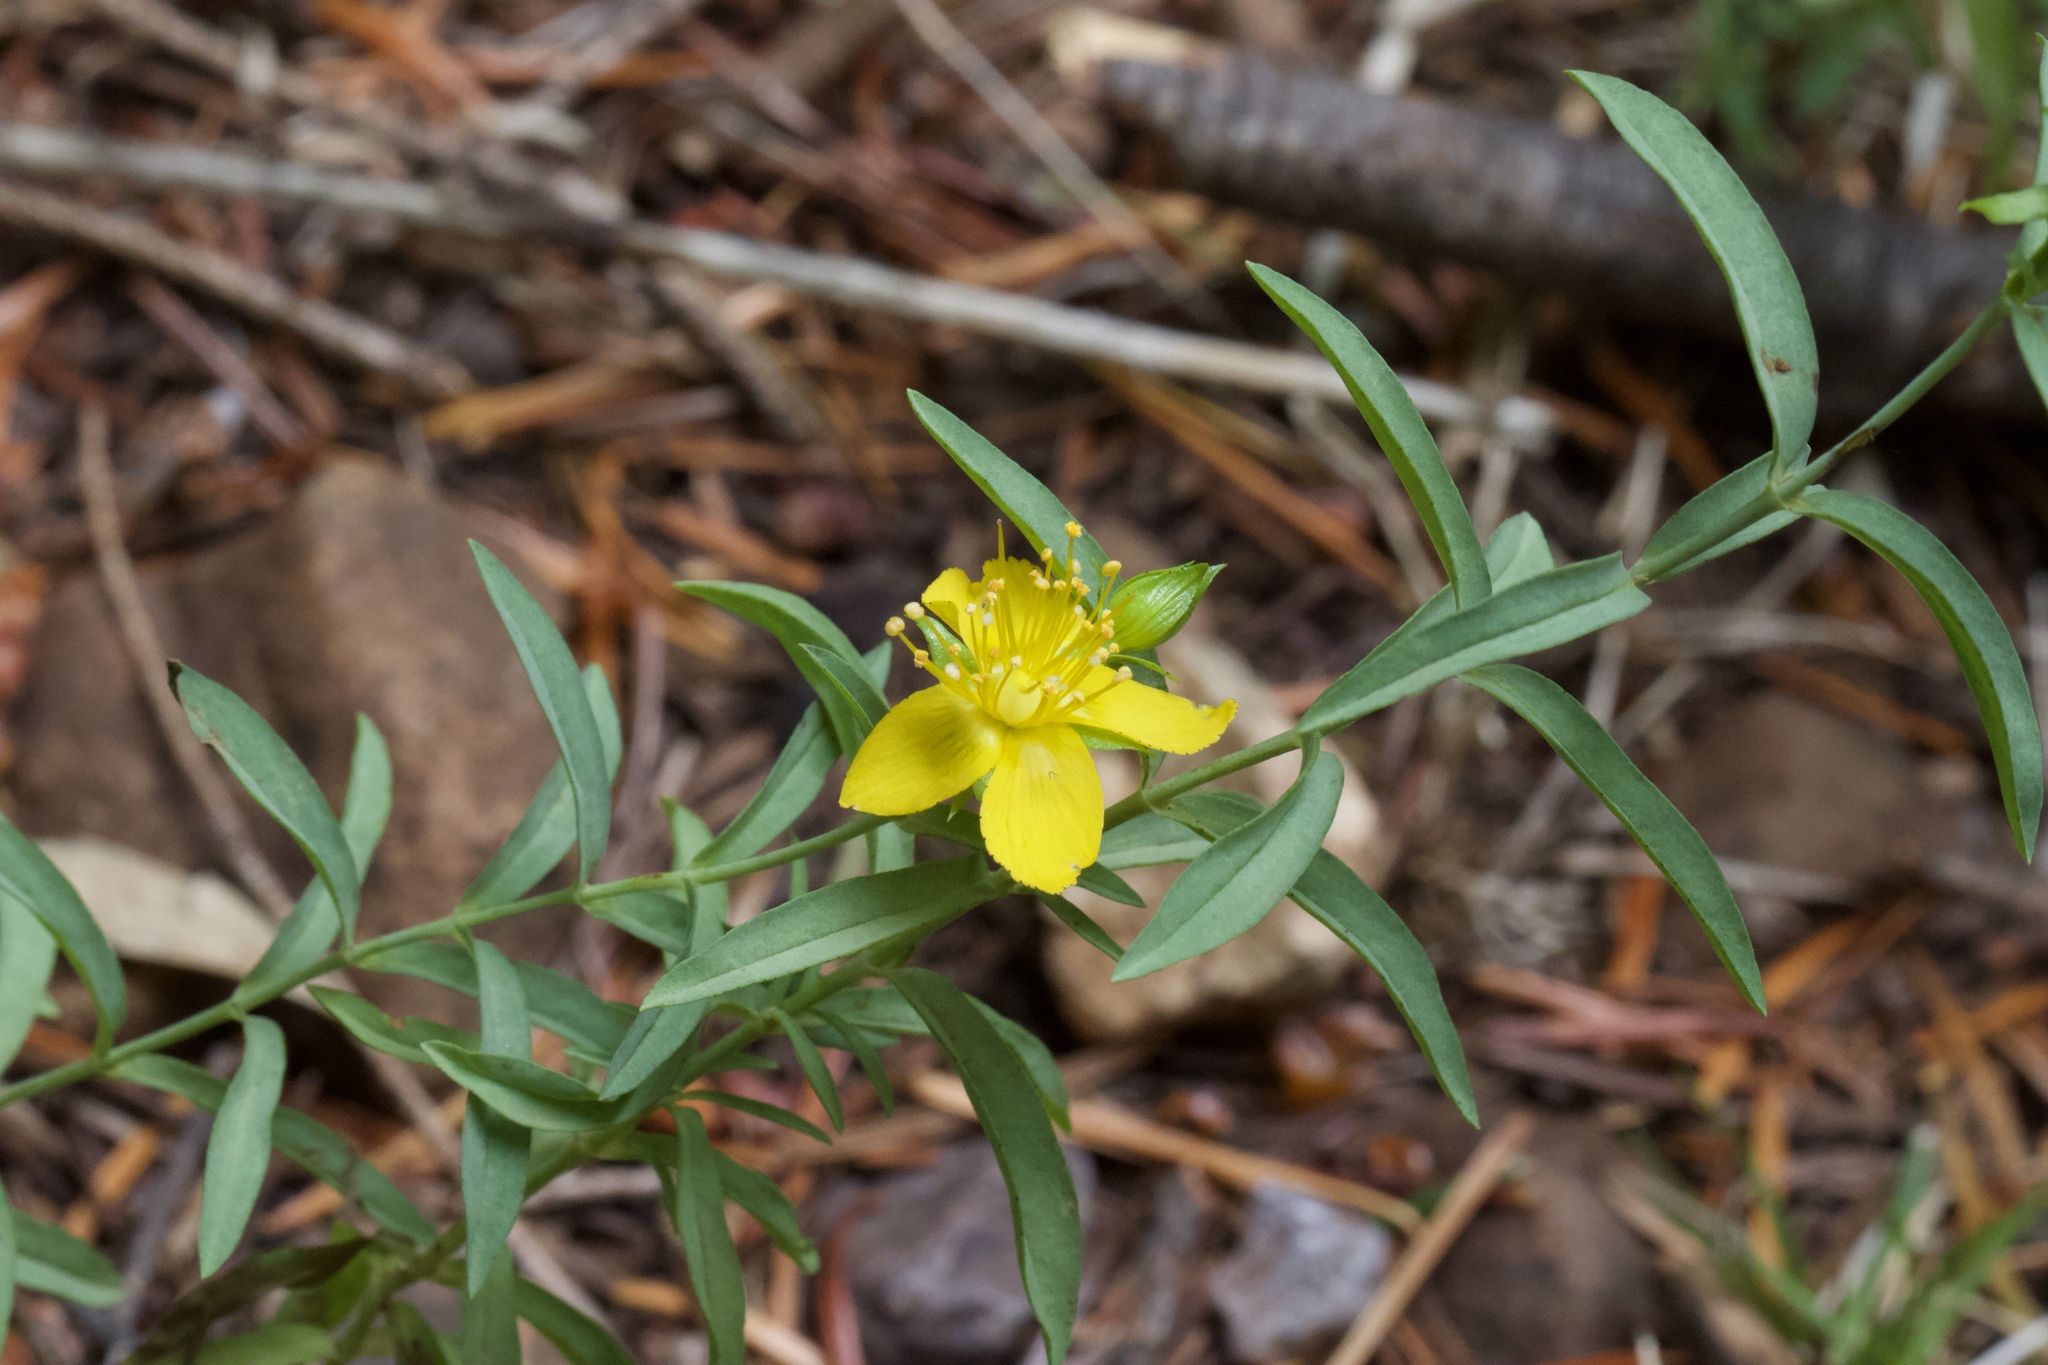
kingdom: Plantae
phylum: Tracheophyta
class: Magnoliopsida
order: Malpighiales
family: Hypericaceae
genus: Hypericum
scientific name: Hypericum concinnum
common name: Gold-wire
